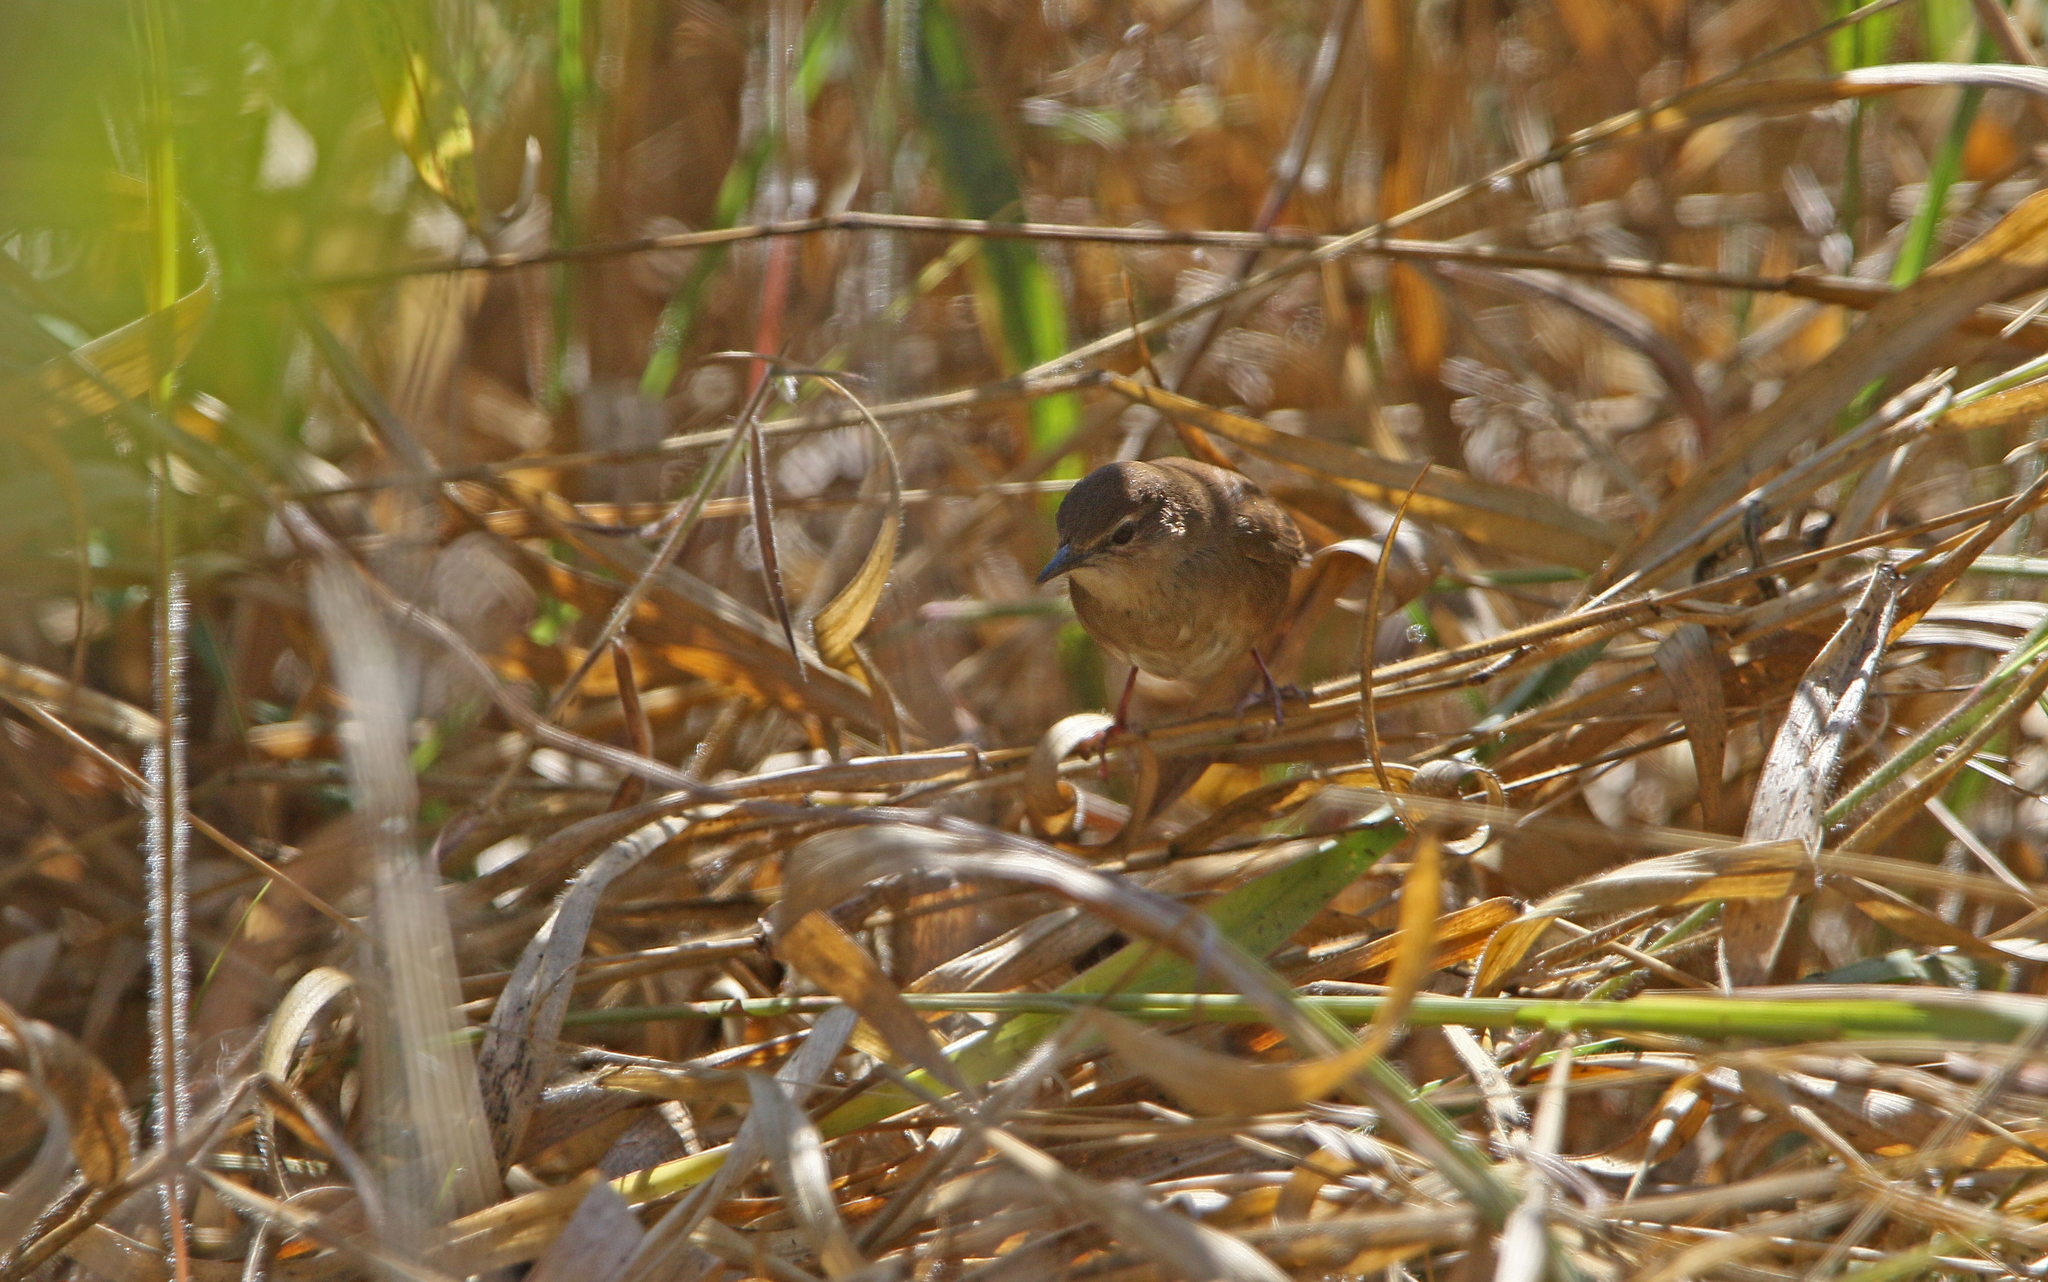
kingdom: Animalia
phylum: Chordata
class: Aves
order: Passeriformes
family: Locustellidae
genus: Locustella
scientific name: Locustella mandelli
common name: Russet bush warbler
